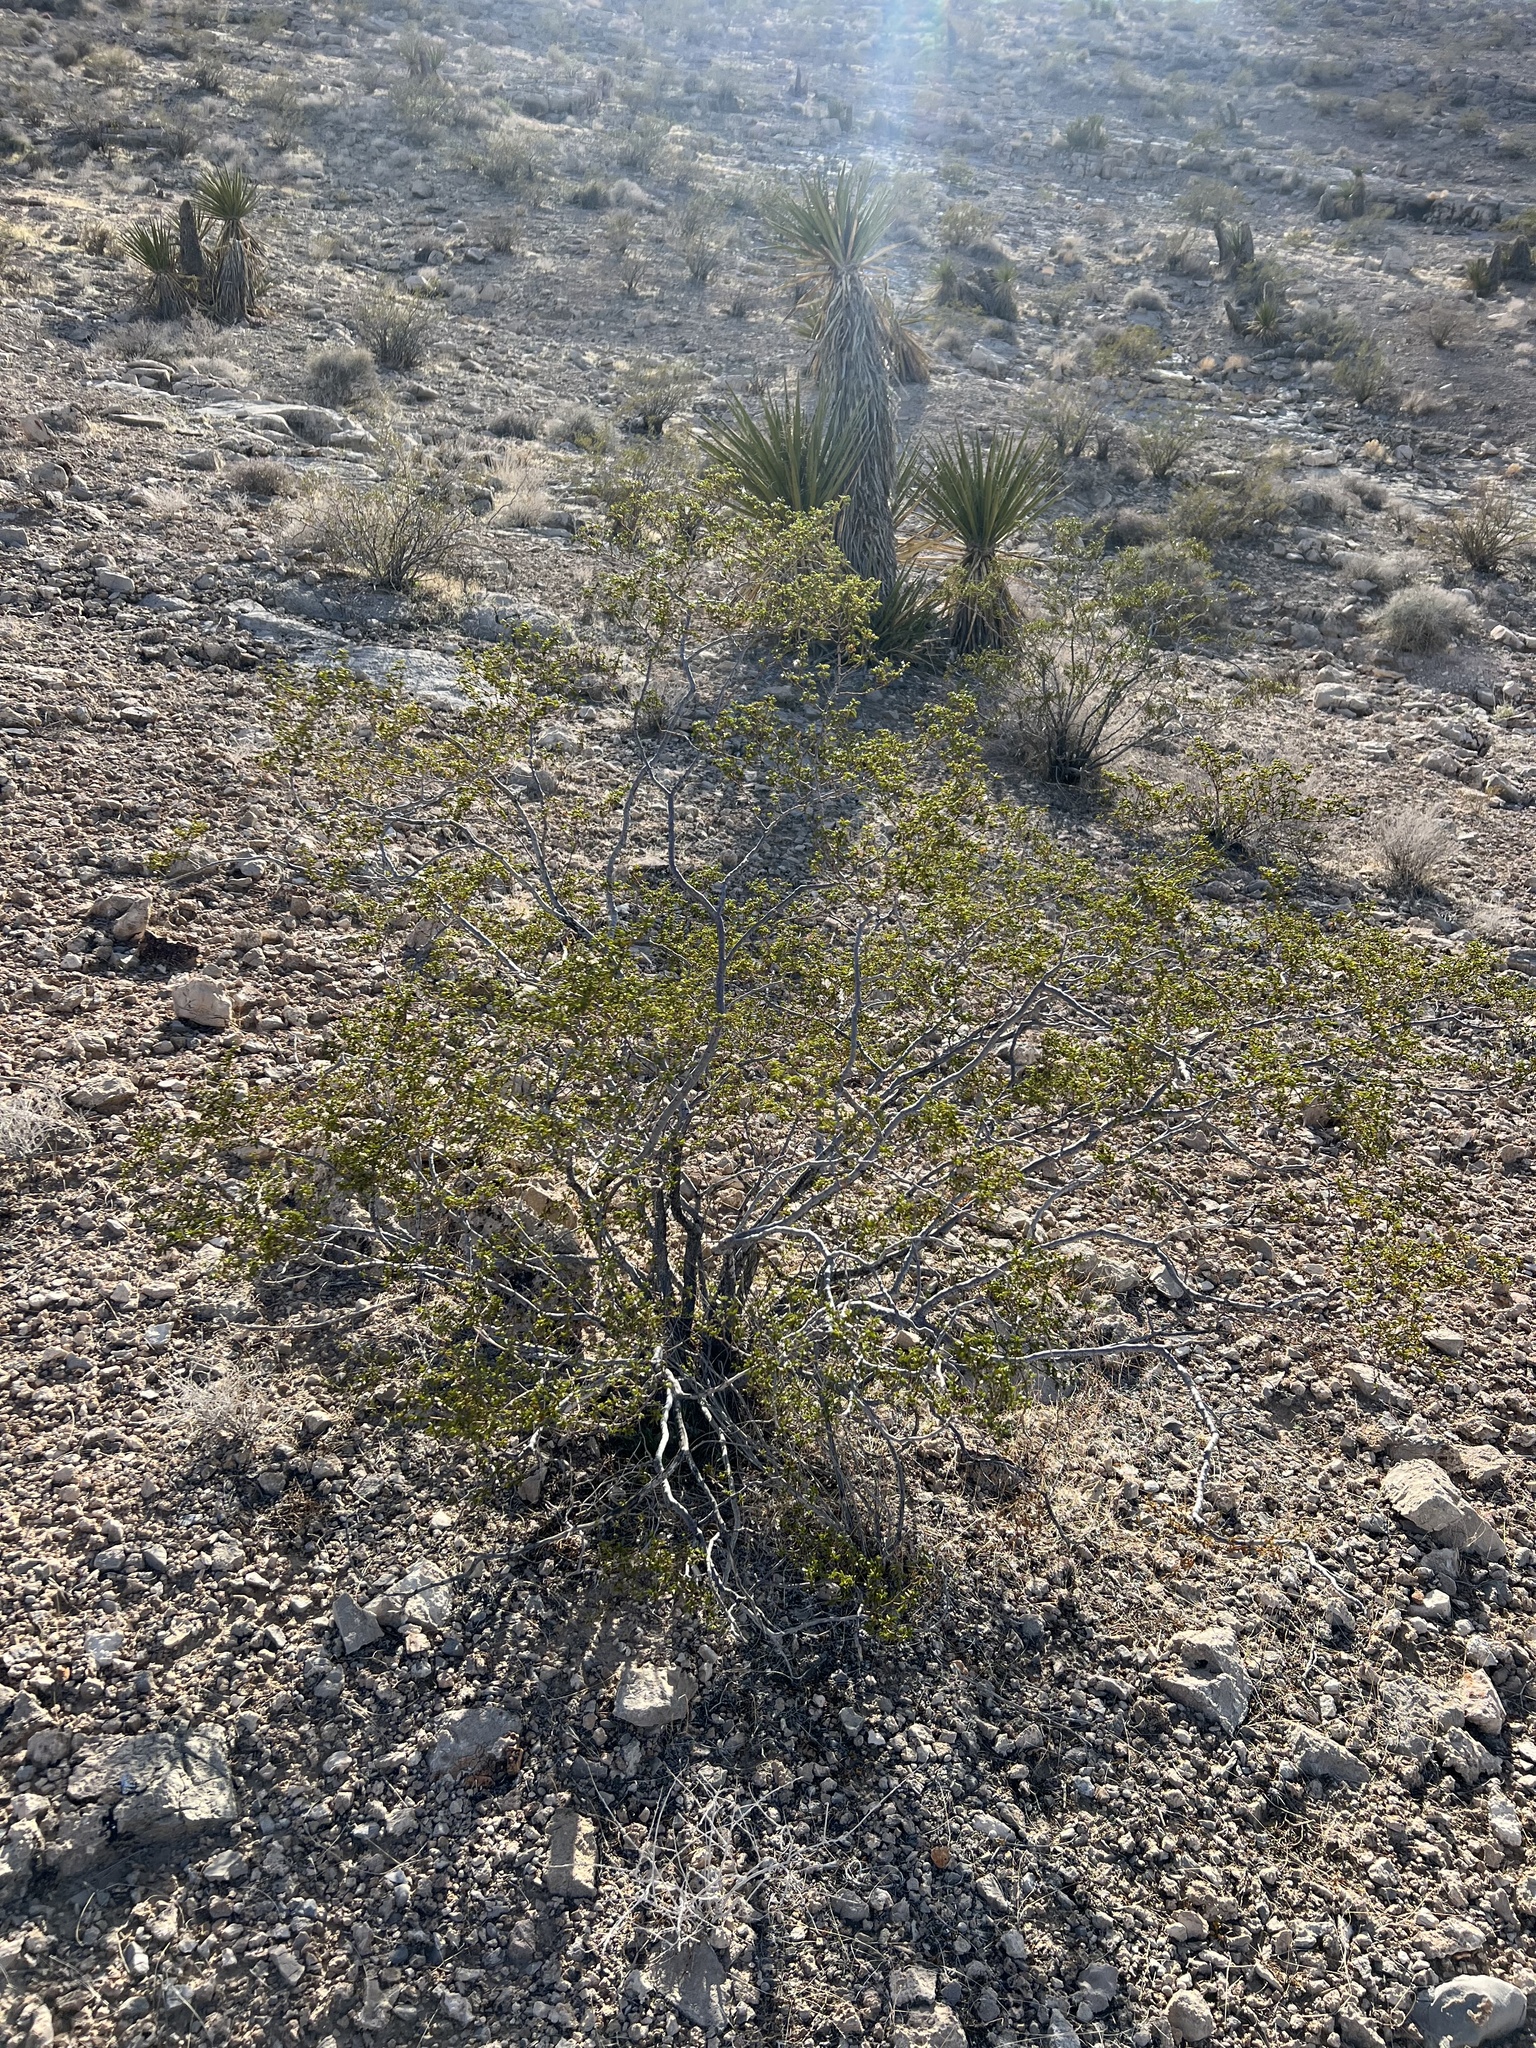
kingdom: Plantae
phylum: Tracheophyta
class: Magnoliopsida
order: Zygophyllales
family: Zygophyllaceae
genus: Larrea
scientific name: Larrea tridentata
